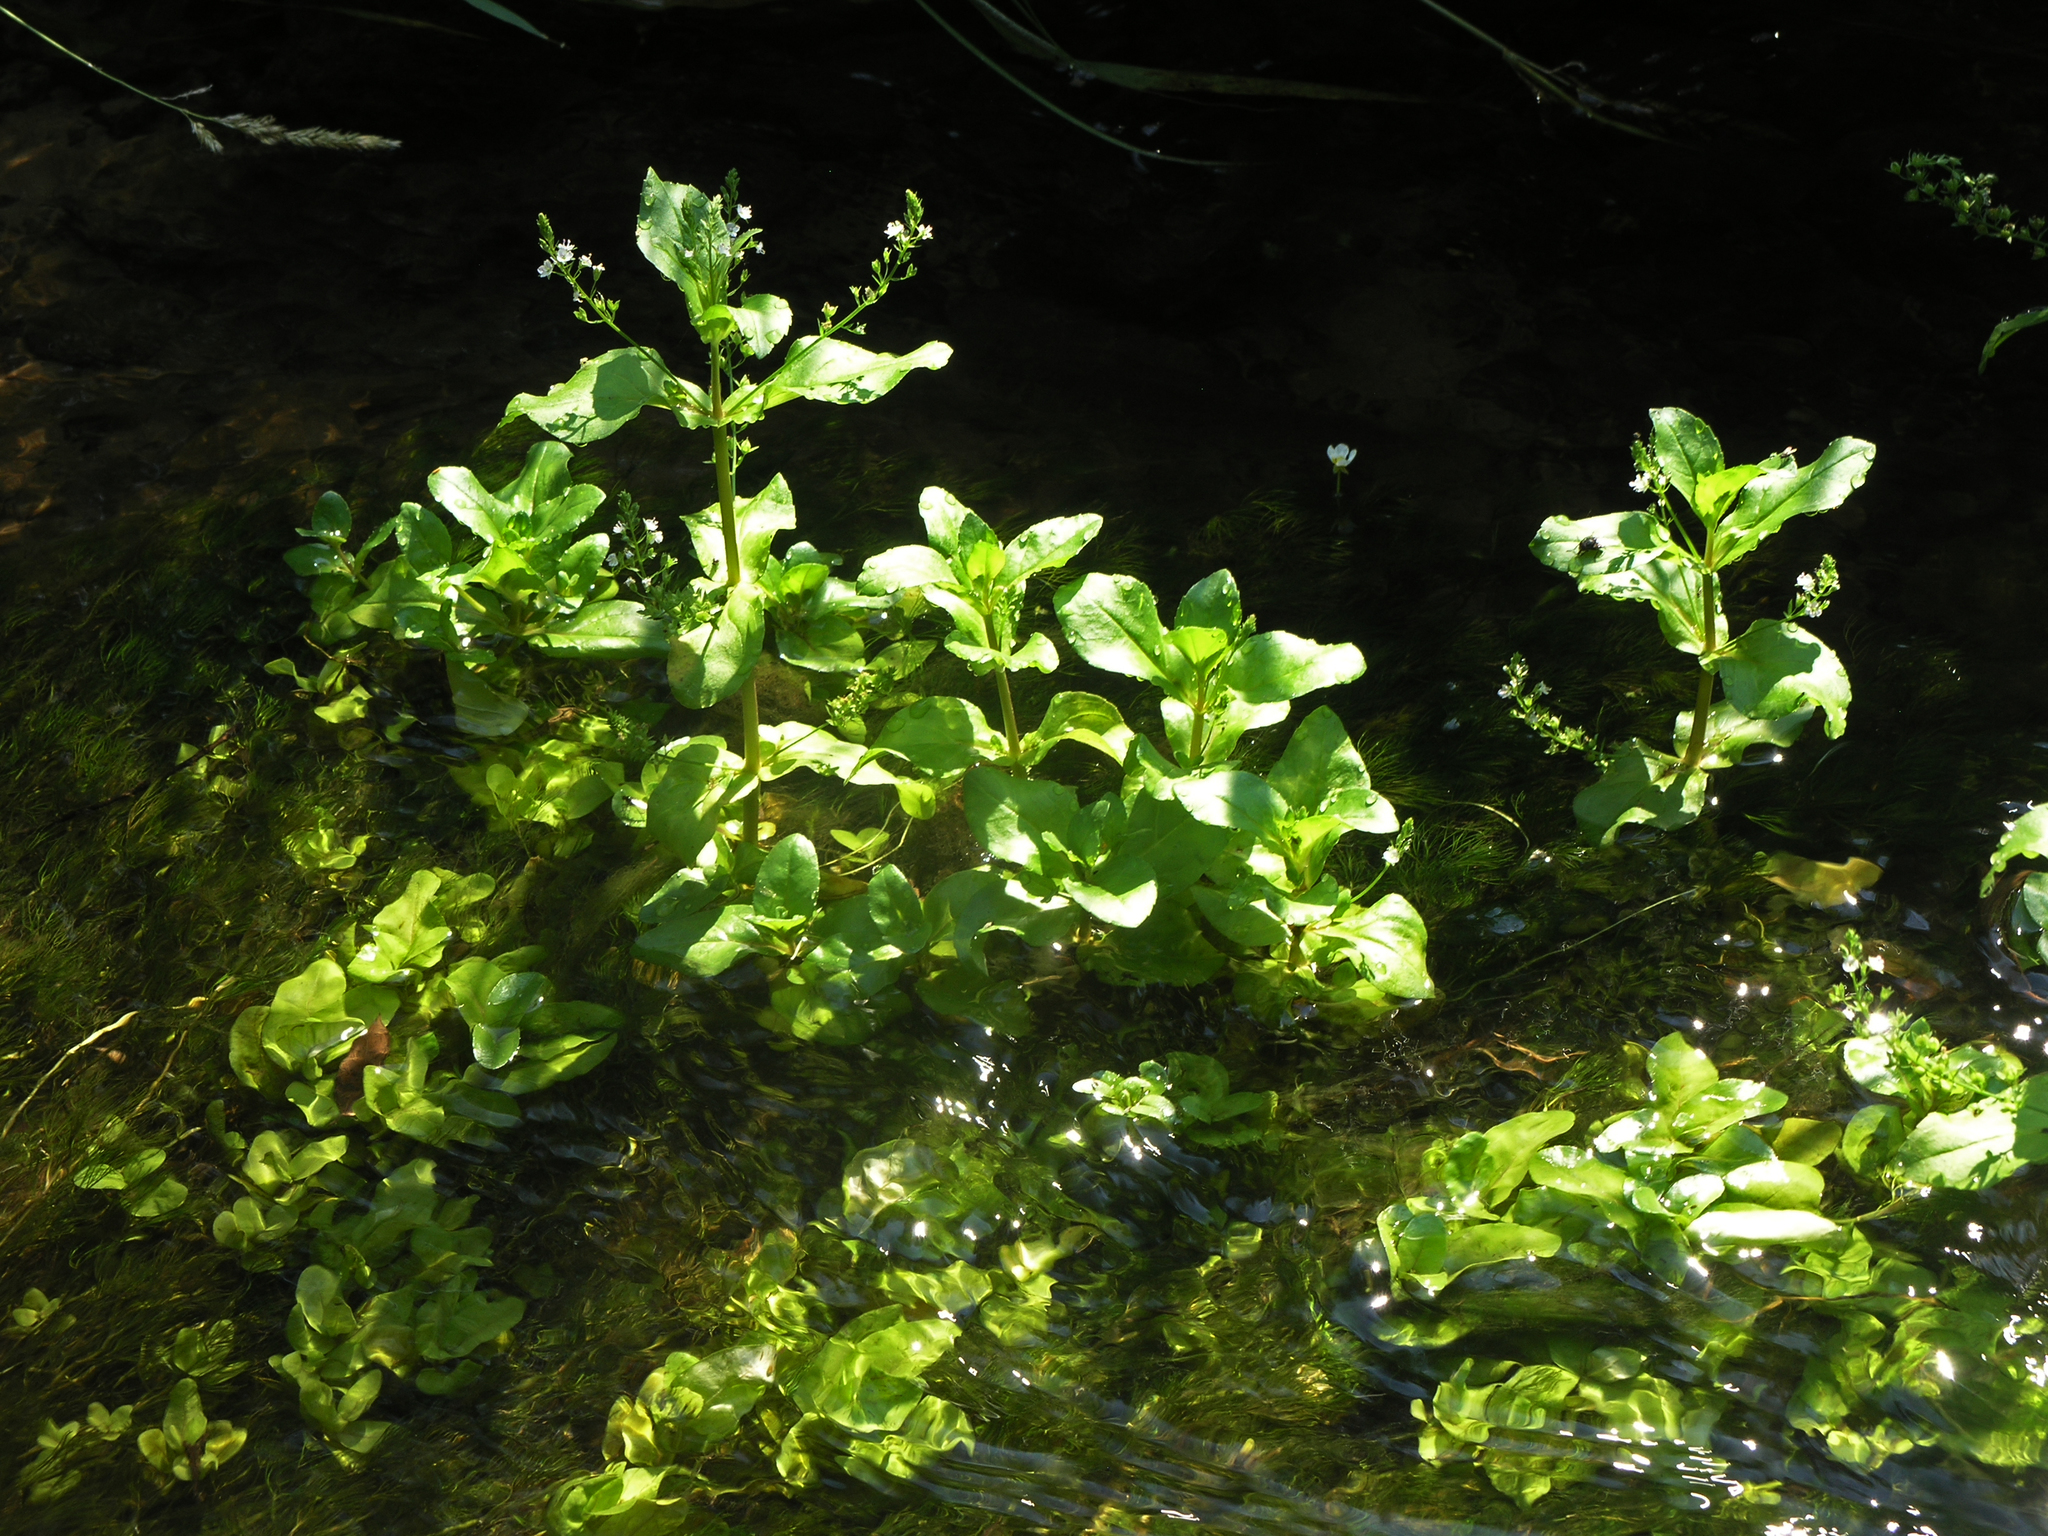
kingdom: Plantae
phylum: Tracheophyta
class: Magnoliopsida
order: Lamiales
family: Plantaginaceae
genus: Veronica
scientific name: Veronica anagallis-aquatica
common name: Water speedwell
